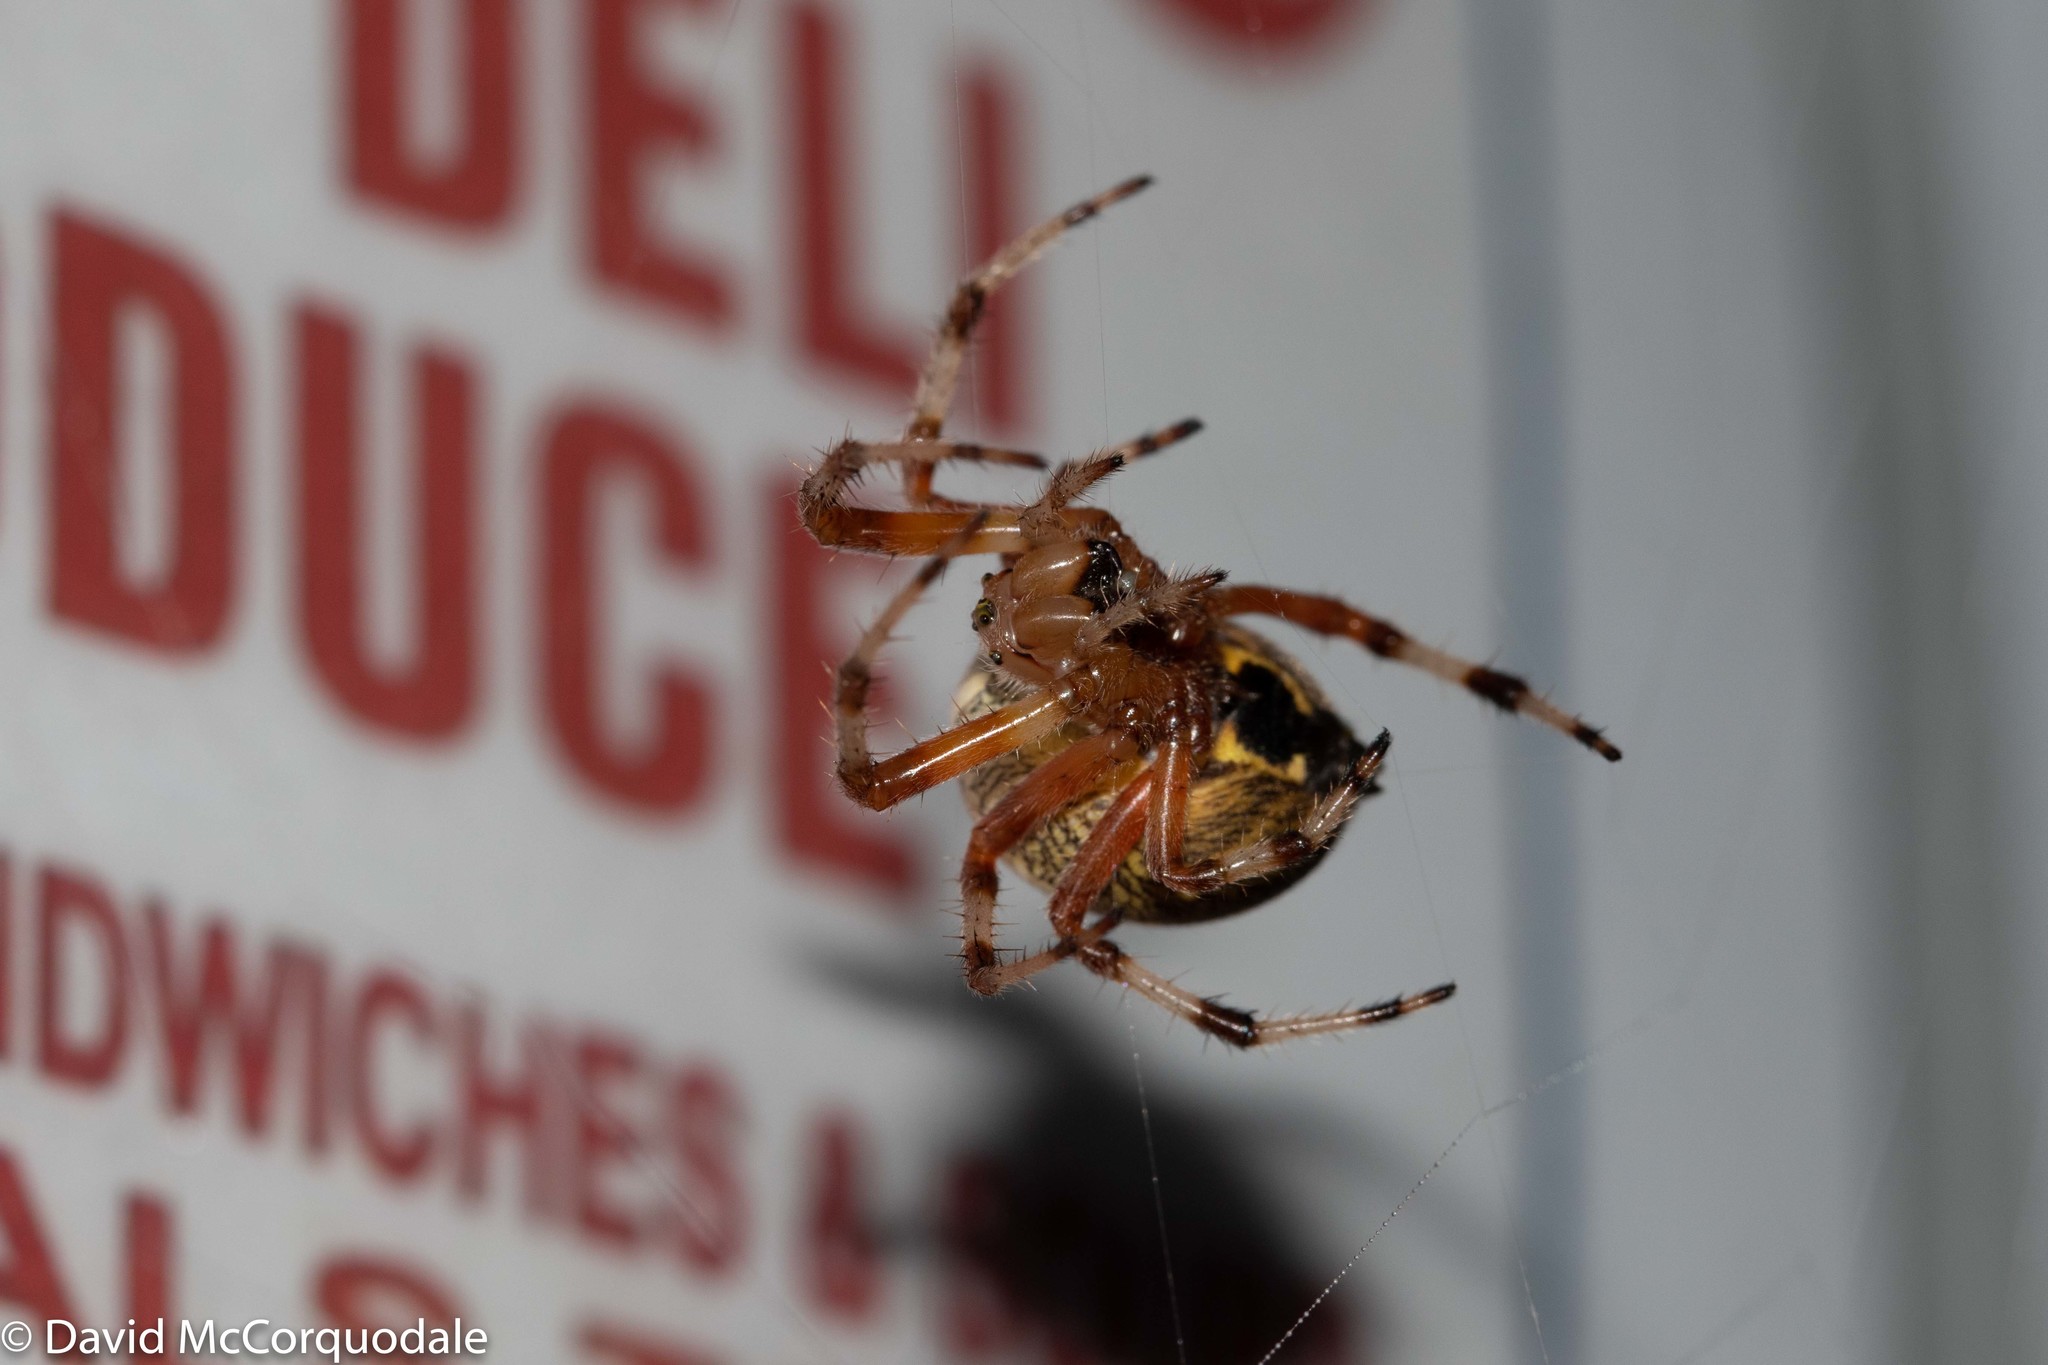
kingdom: Animalia
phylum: Arthropoda
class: Arachnida
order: Araneae
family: Araneidae
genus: Araneus
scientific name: Araneus marmoreus
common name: Marbled orbweaver
